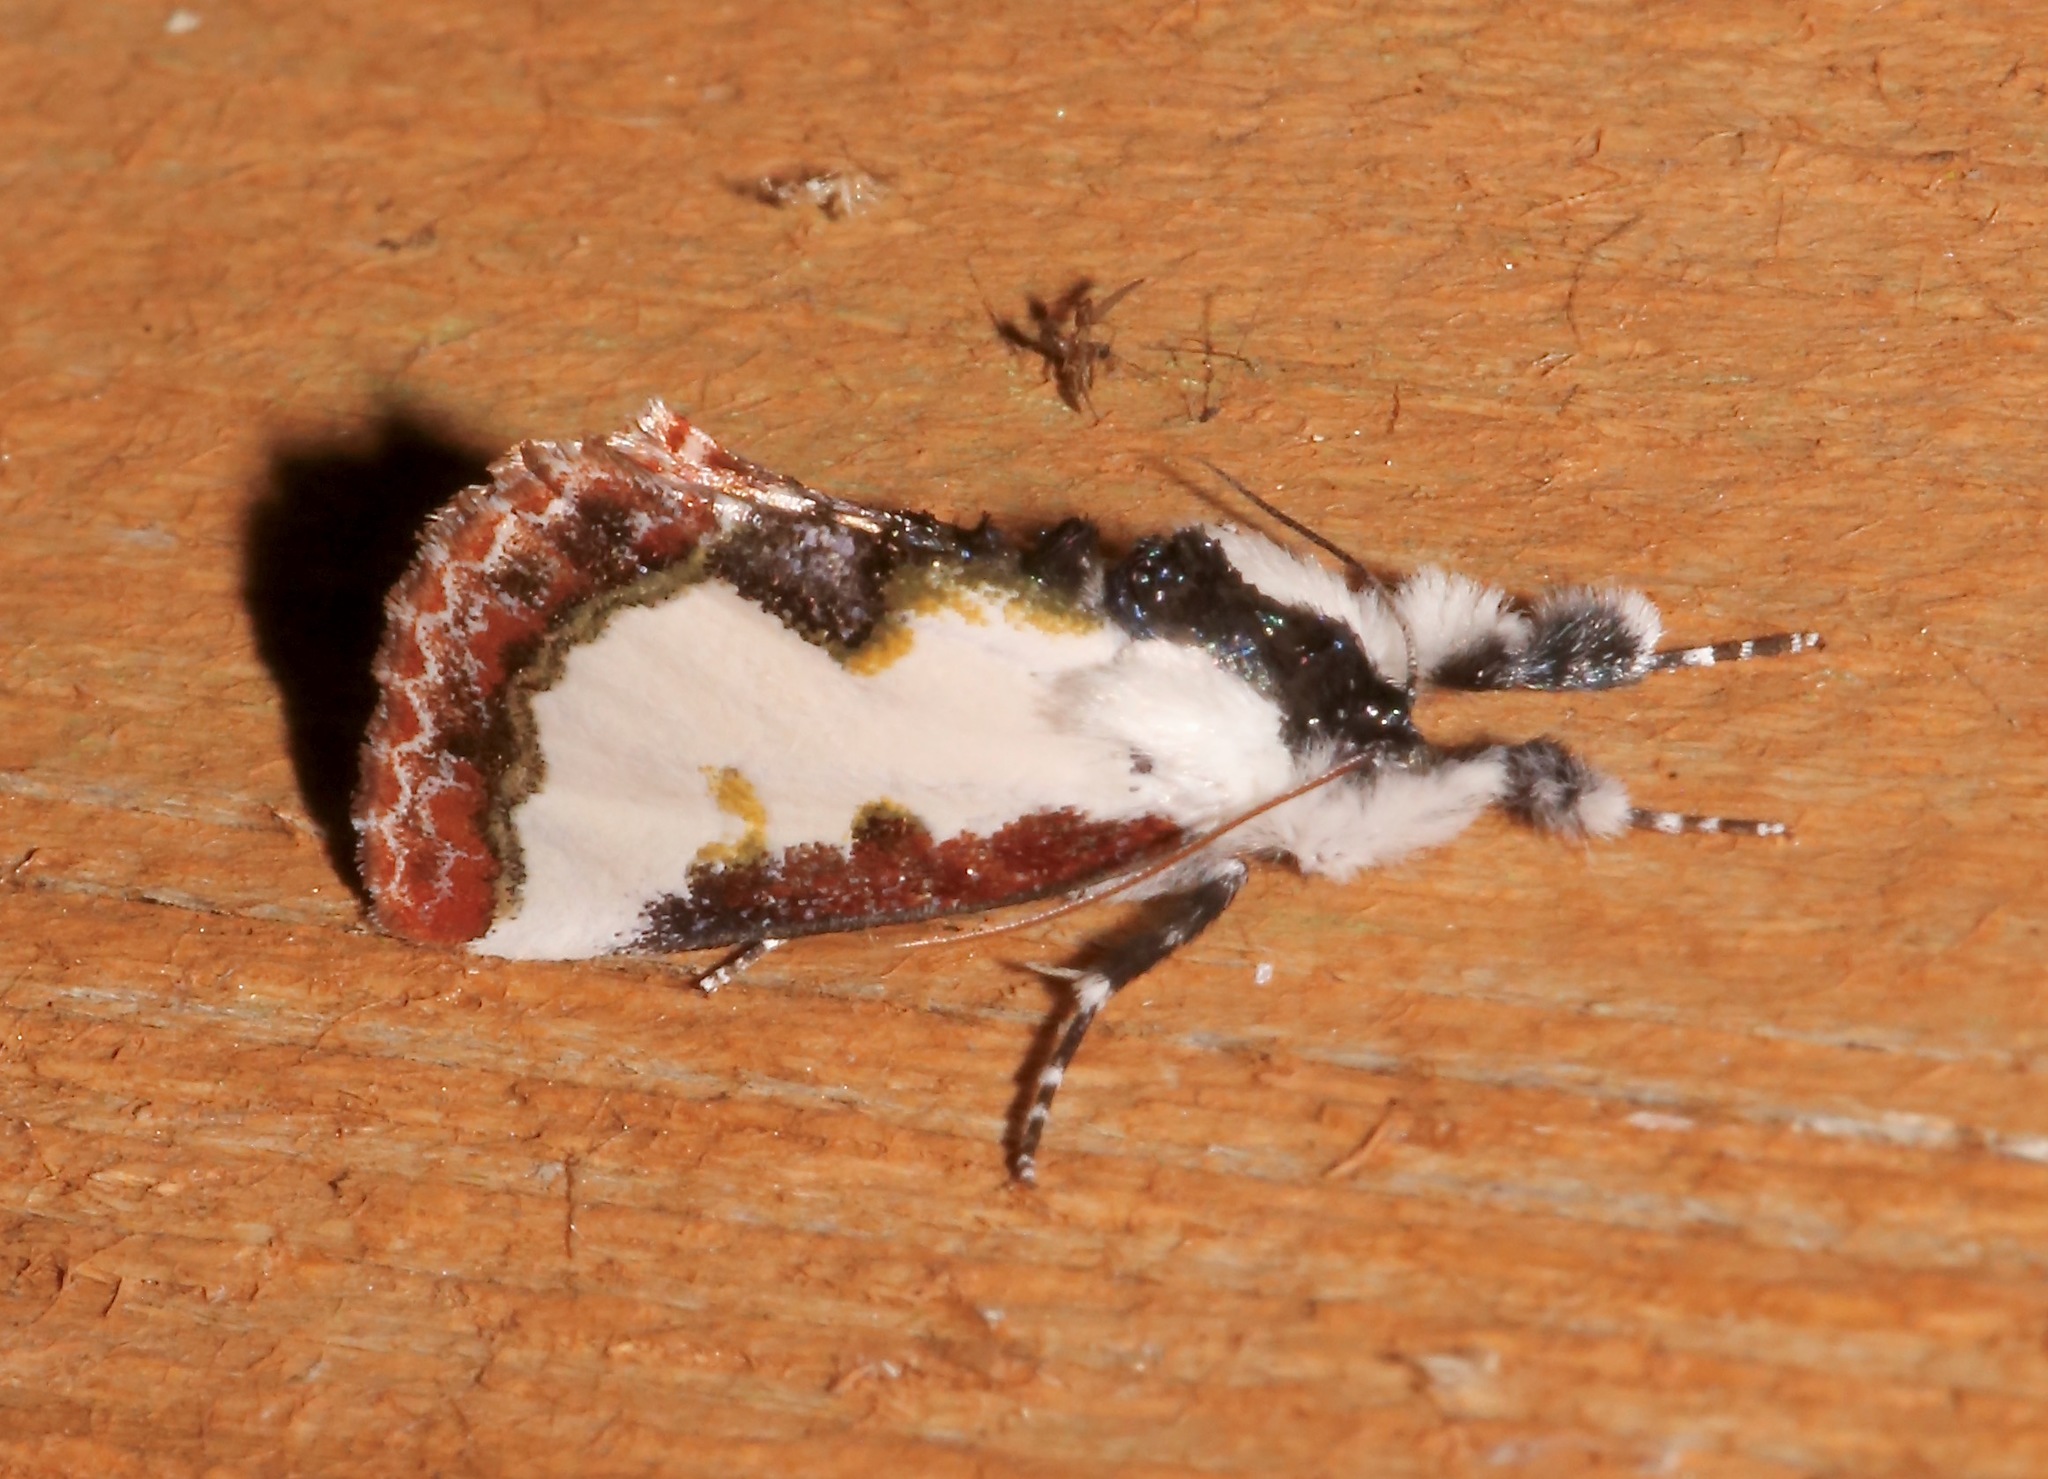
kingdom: Animalia
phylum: Arthropoda
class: Insecta
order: Lepidoptera
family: Noctuidae
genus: Eudryas
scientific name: Eudryas unio
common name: Pearly wood-nymph
